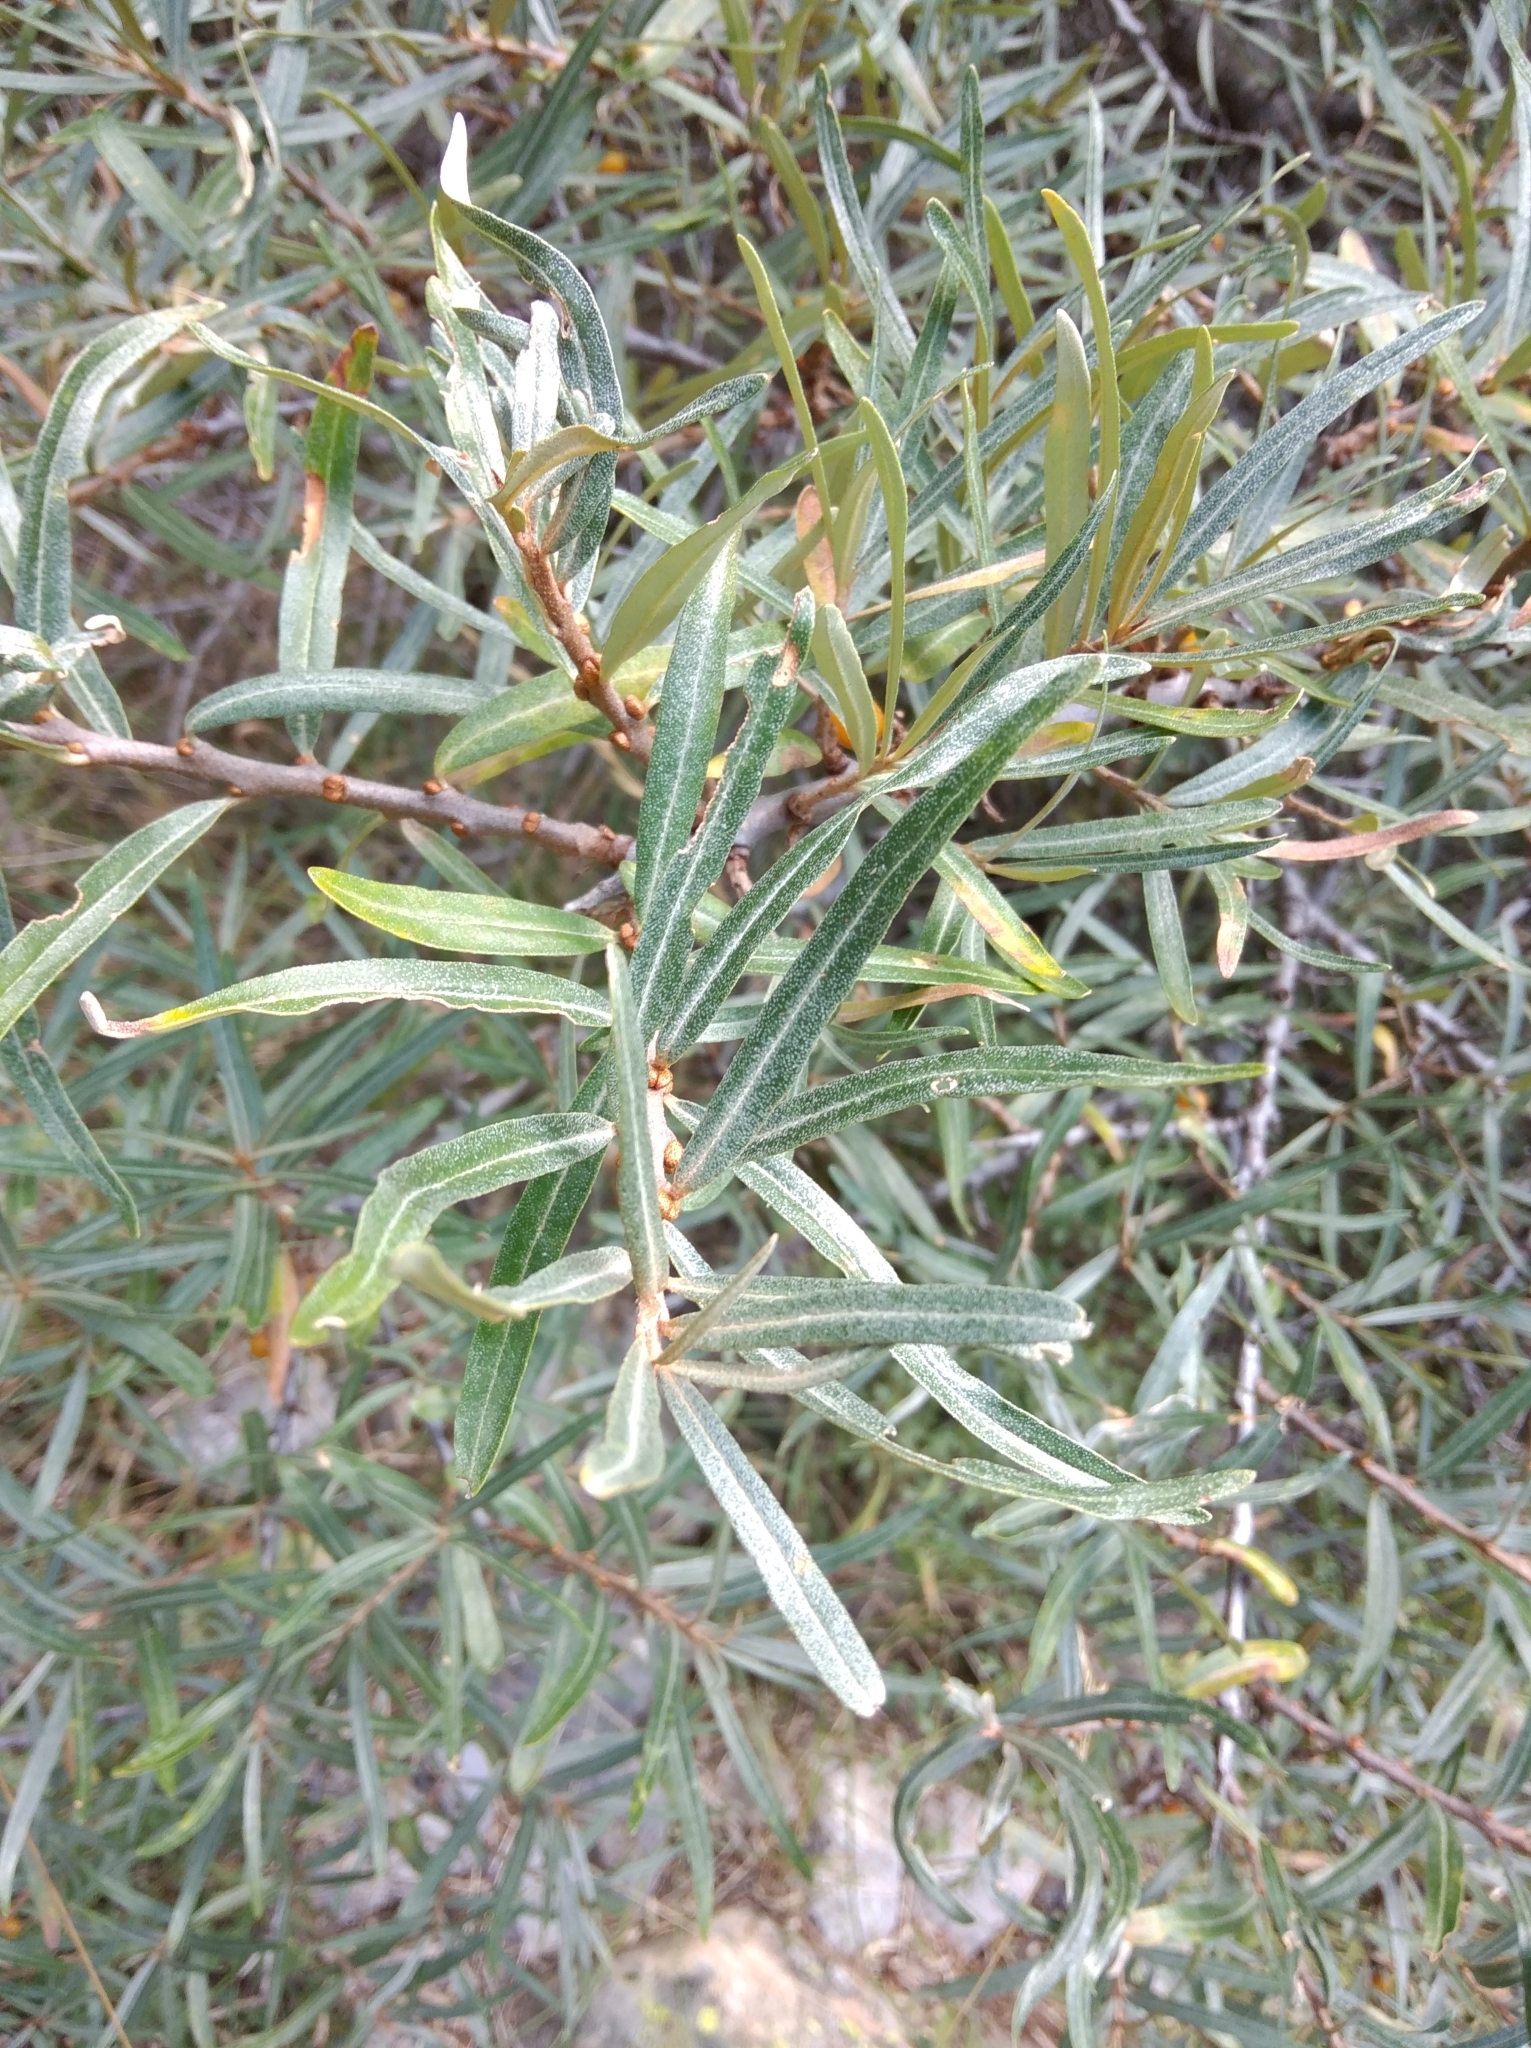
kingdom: Plantae
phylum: Tracheophyta
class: Magnoliopsida
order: Rosales
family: Elaeagnaceae
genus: Hippophae
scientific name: Hippophae rhamnoides
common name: Sea-buckthorn
